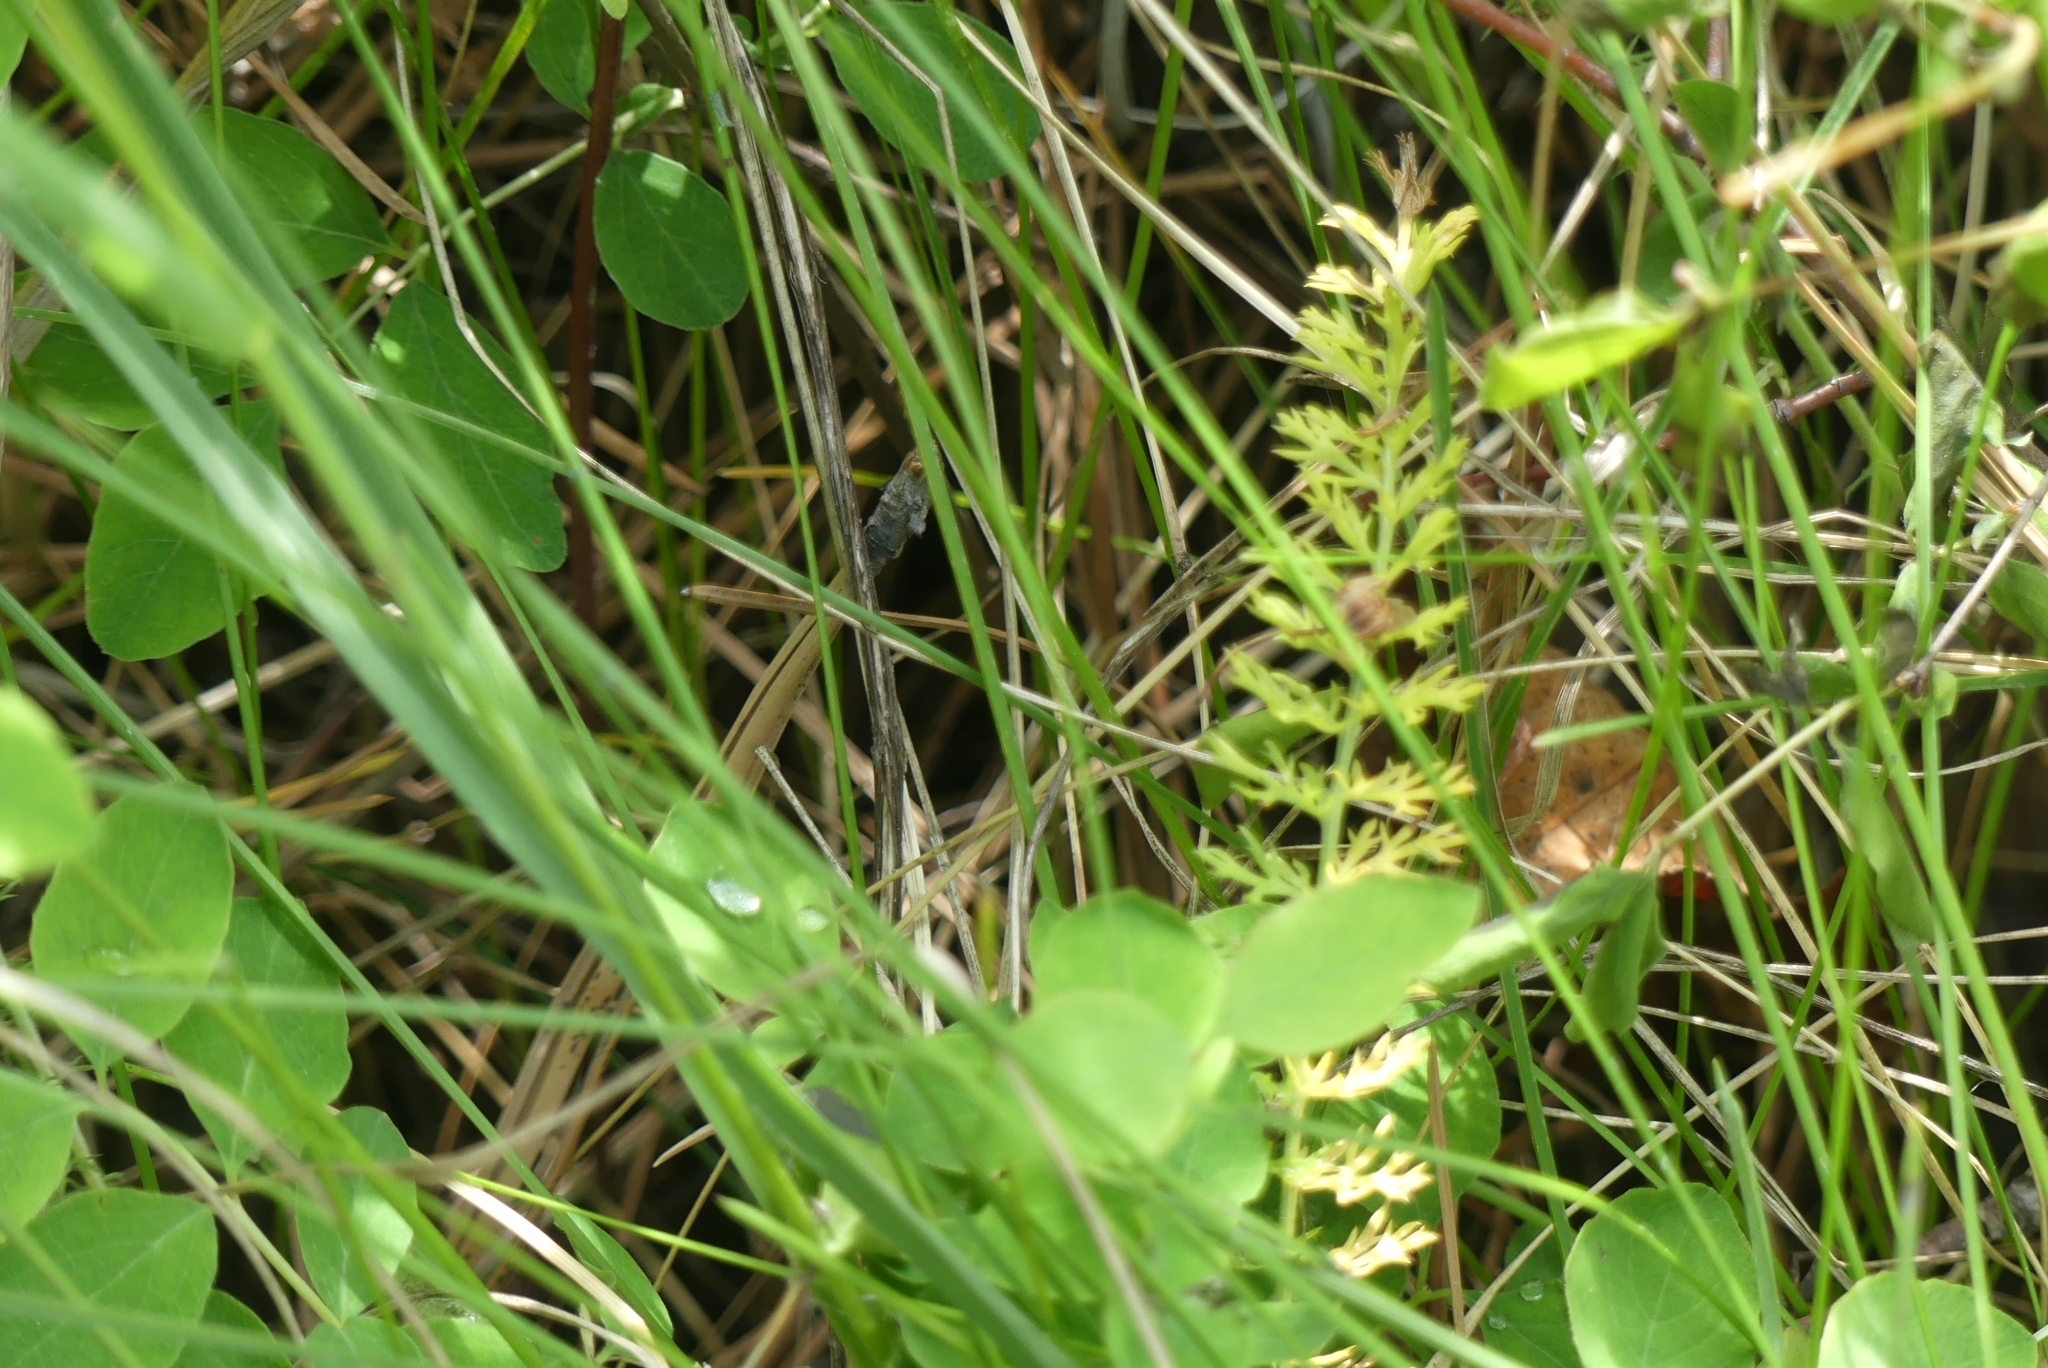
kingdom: Plantae
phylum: Tracheophyta
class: Magnoliopsida
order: Asterales
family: Asteraceae
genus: Achillea
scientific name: Achillea millefolium
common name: Yarrow
